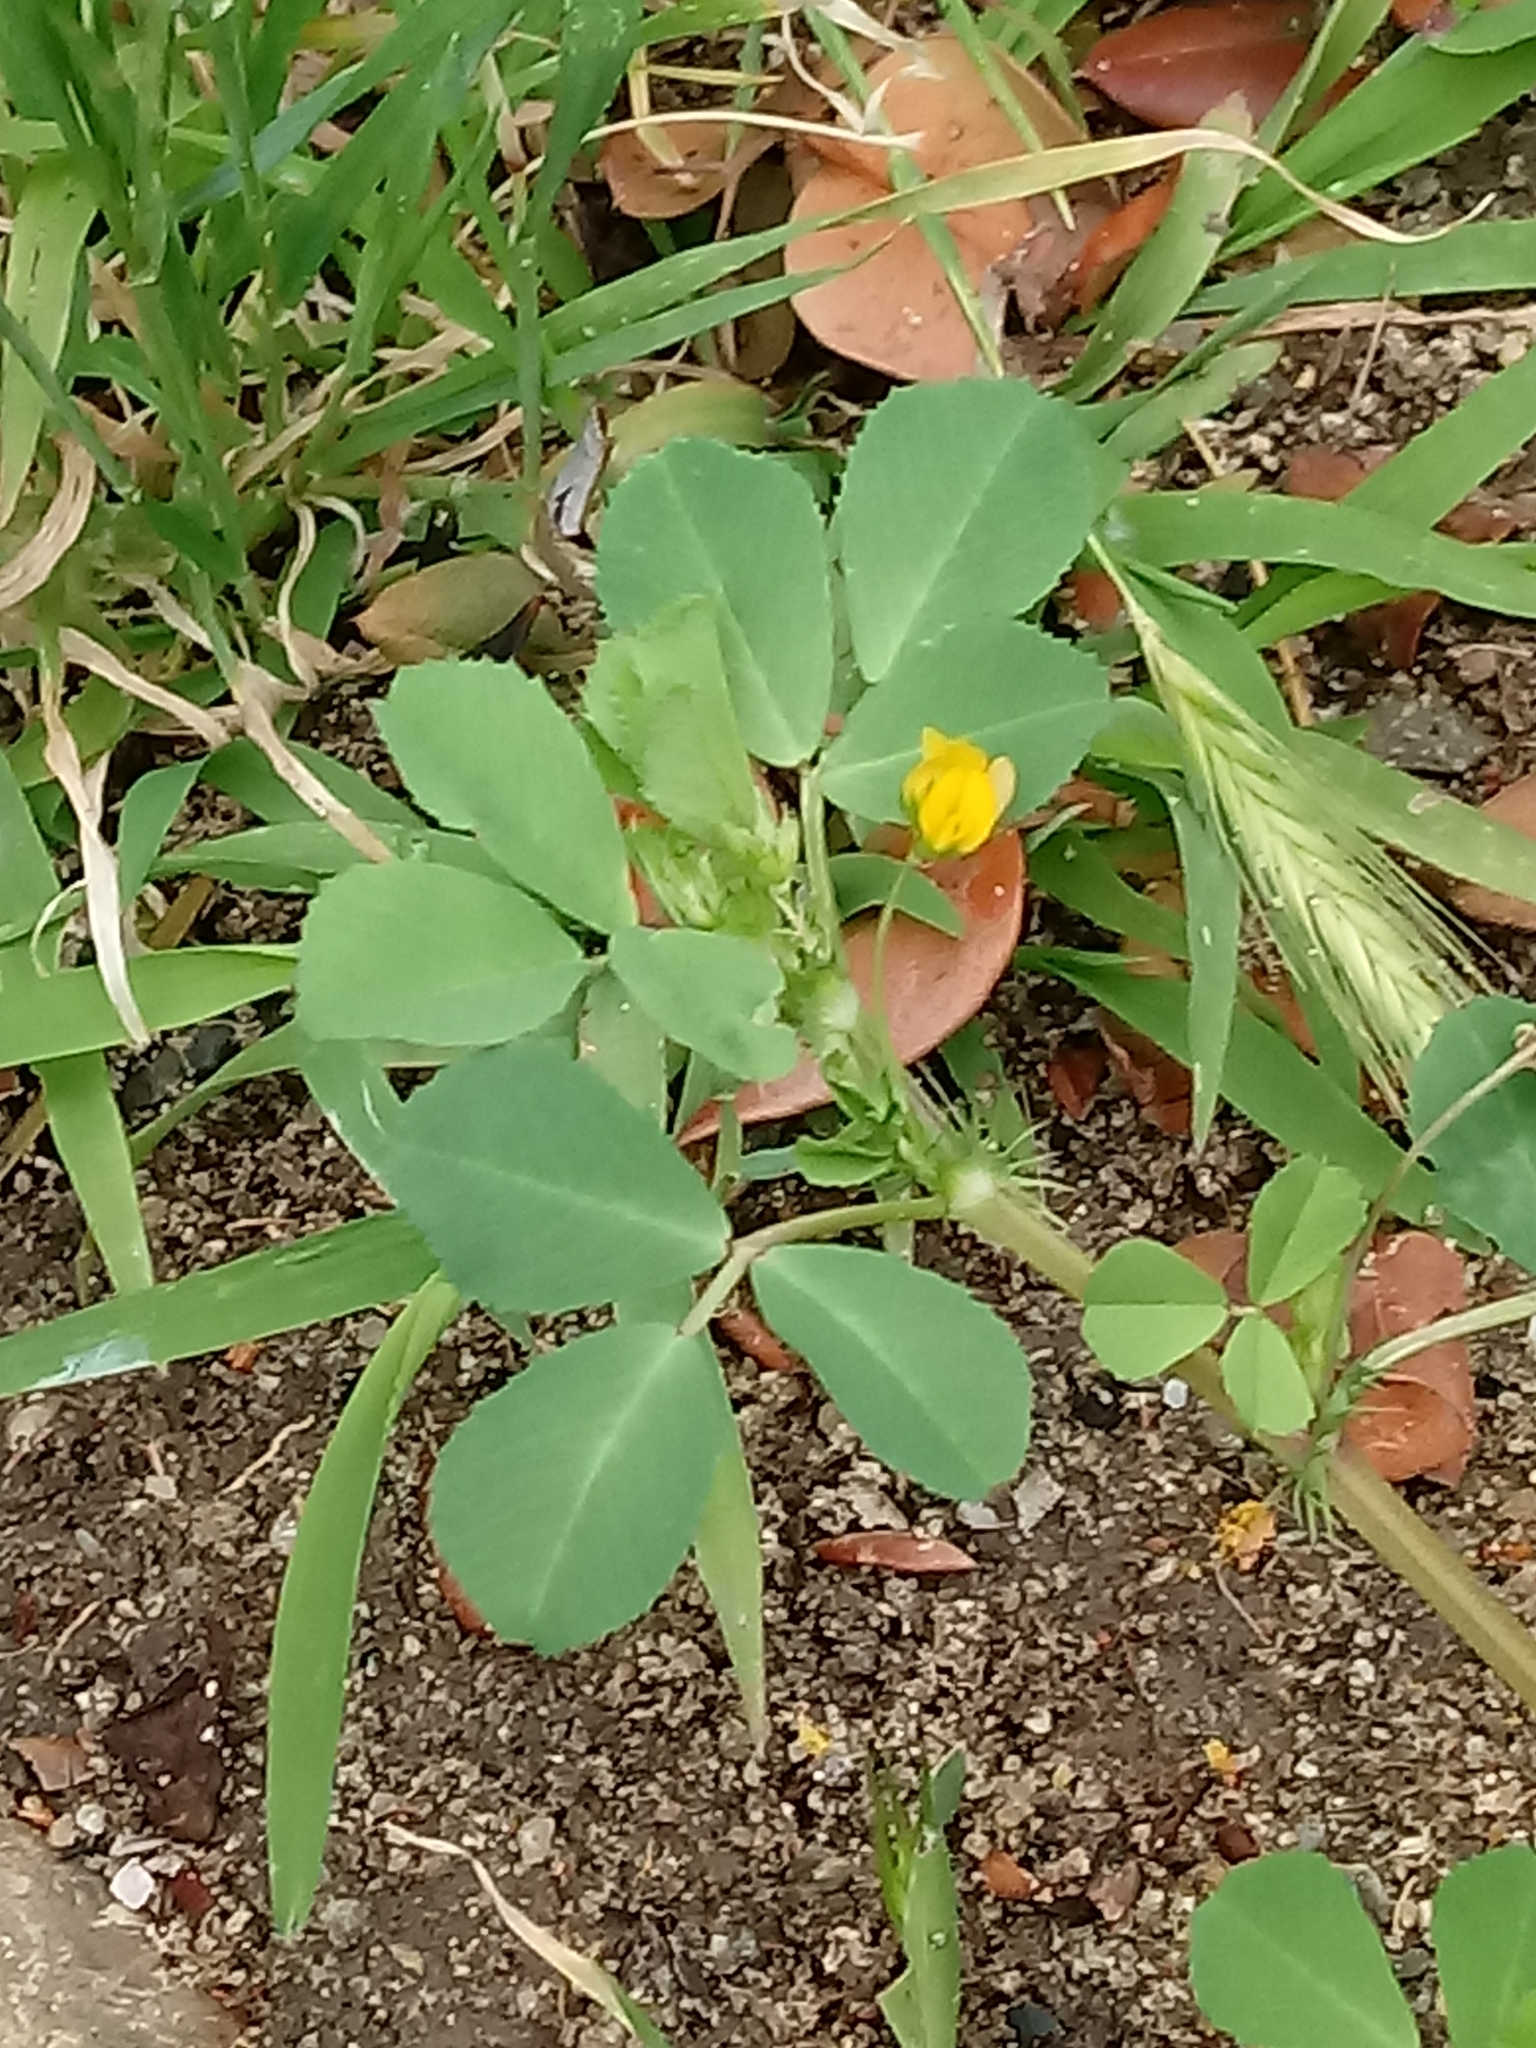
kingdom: Plantae
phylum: Tracheophyta
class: Magnoliopsida
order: Fabales
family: Fabaceae
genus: Medicago
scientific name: Medicago polymorpha
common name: Burclover
